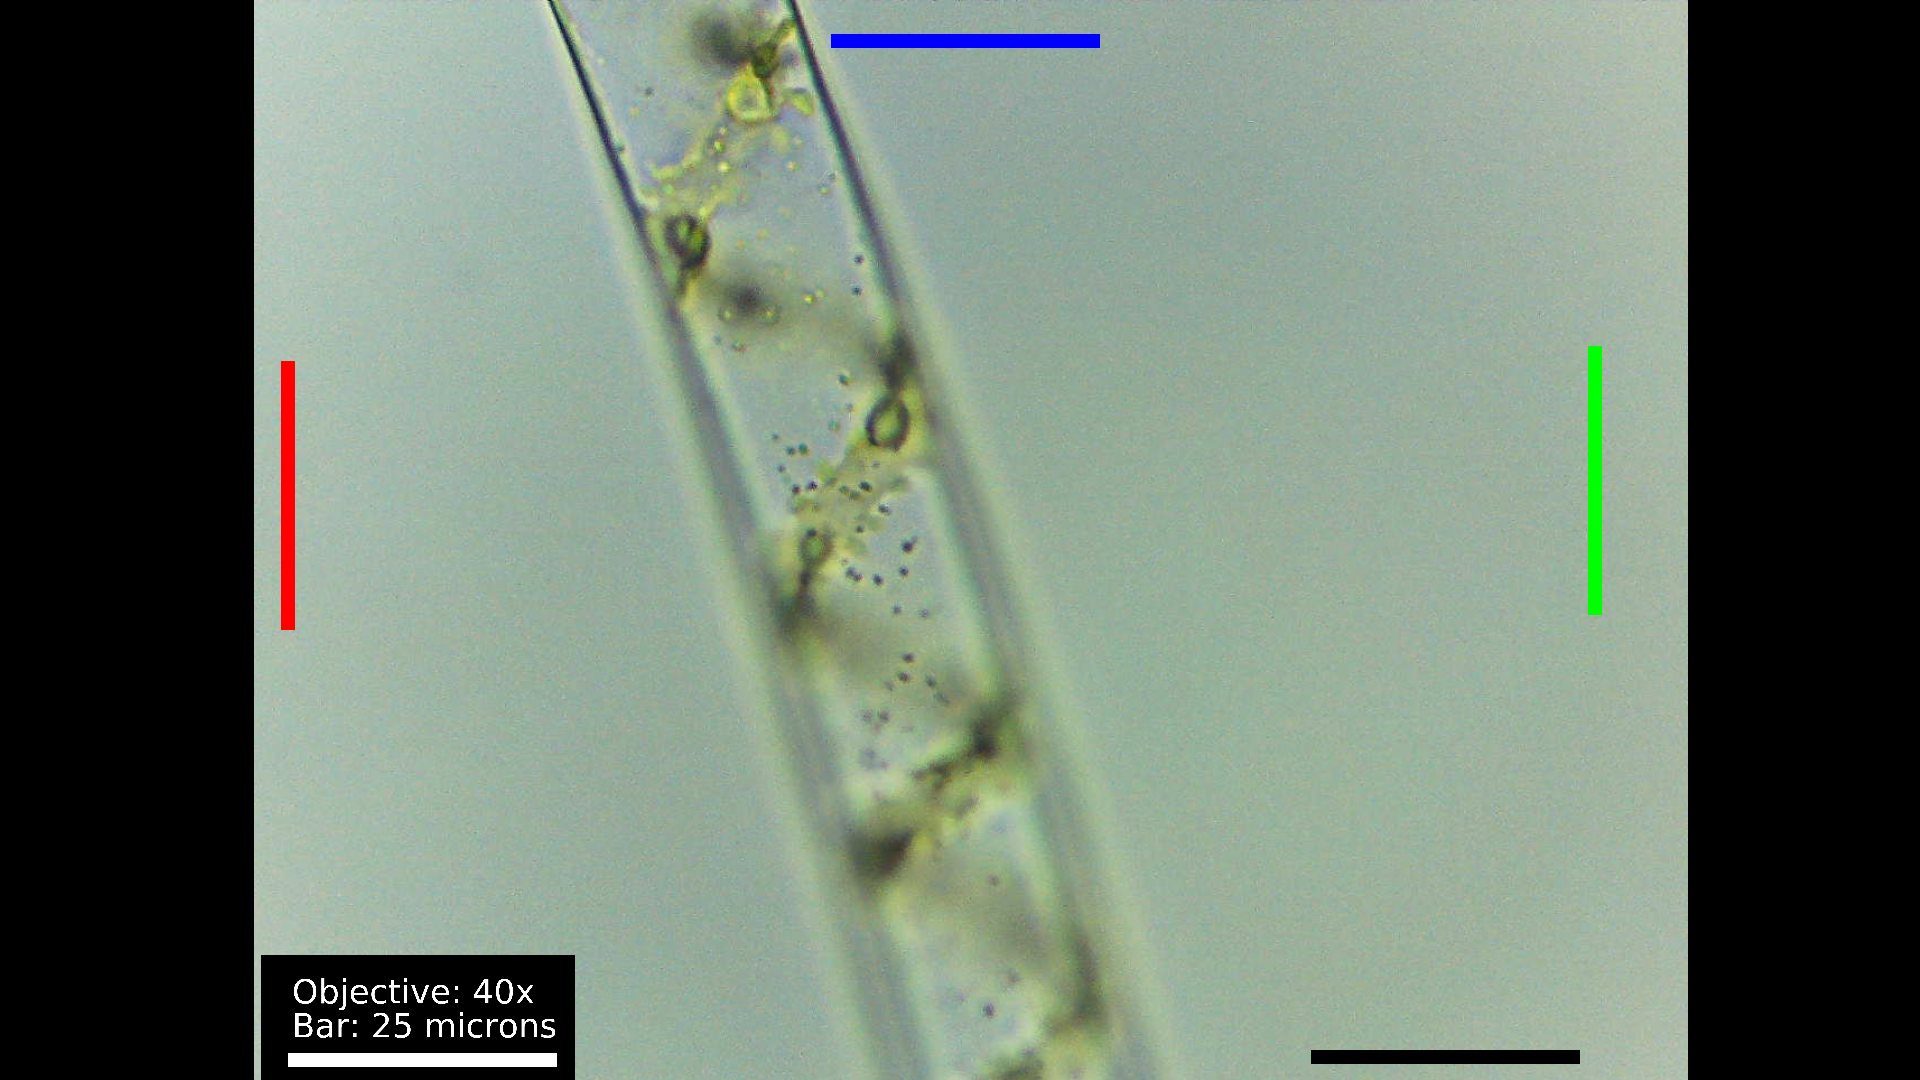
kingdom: Plantae
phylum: Charophyta
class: Zygnematophyceae
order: Zygnematales
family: Zygnemataceae
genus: Spirogyra
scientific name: Spirogyra
